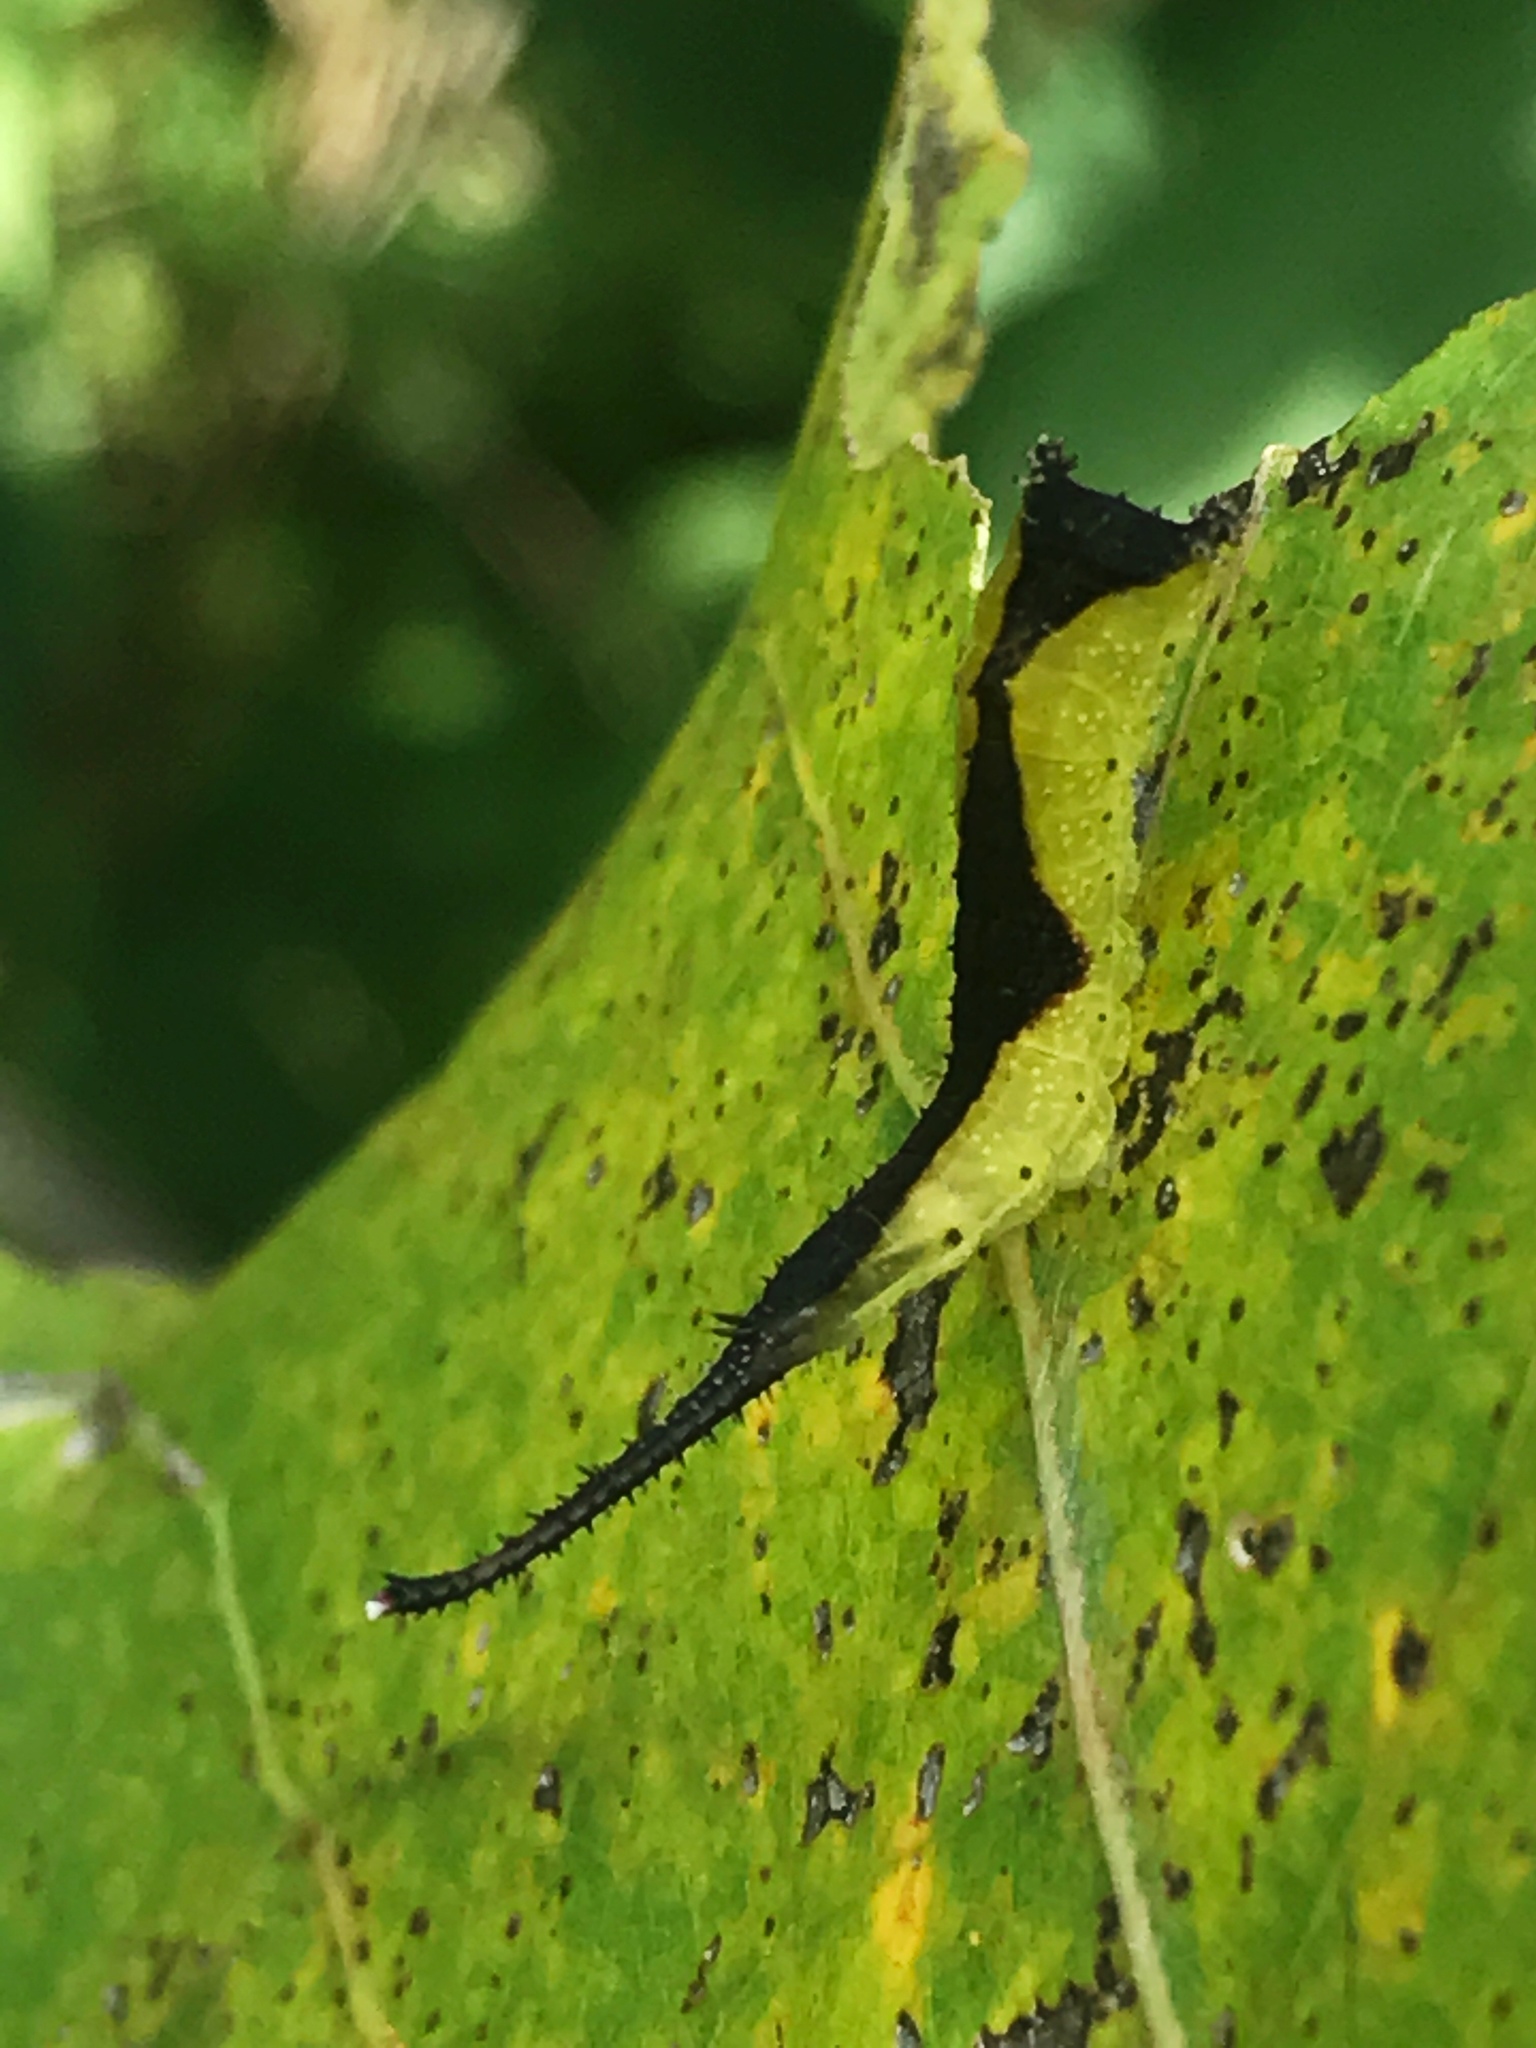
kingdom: Animalia
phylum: Arthropoda
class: Insecta
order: Lepidoptera
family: Notodontidae
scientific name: Notodontidae
